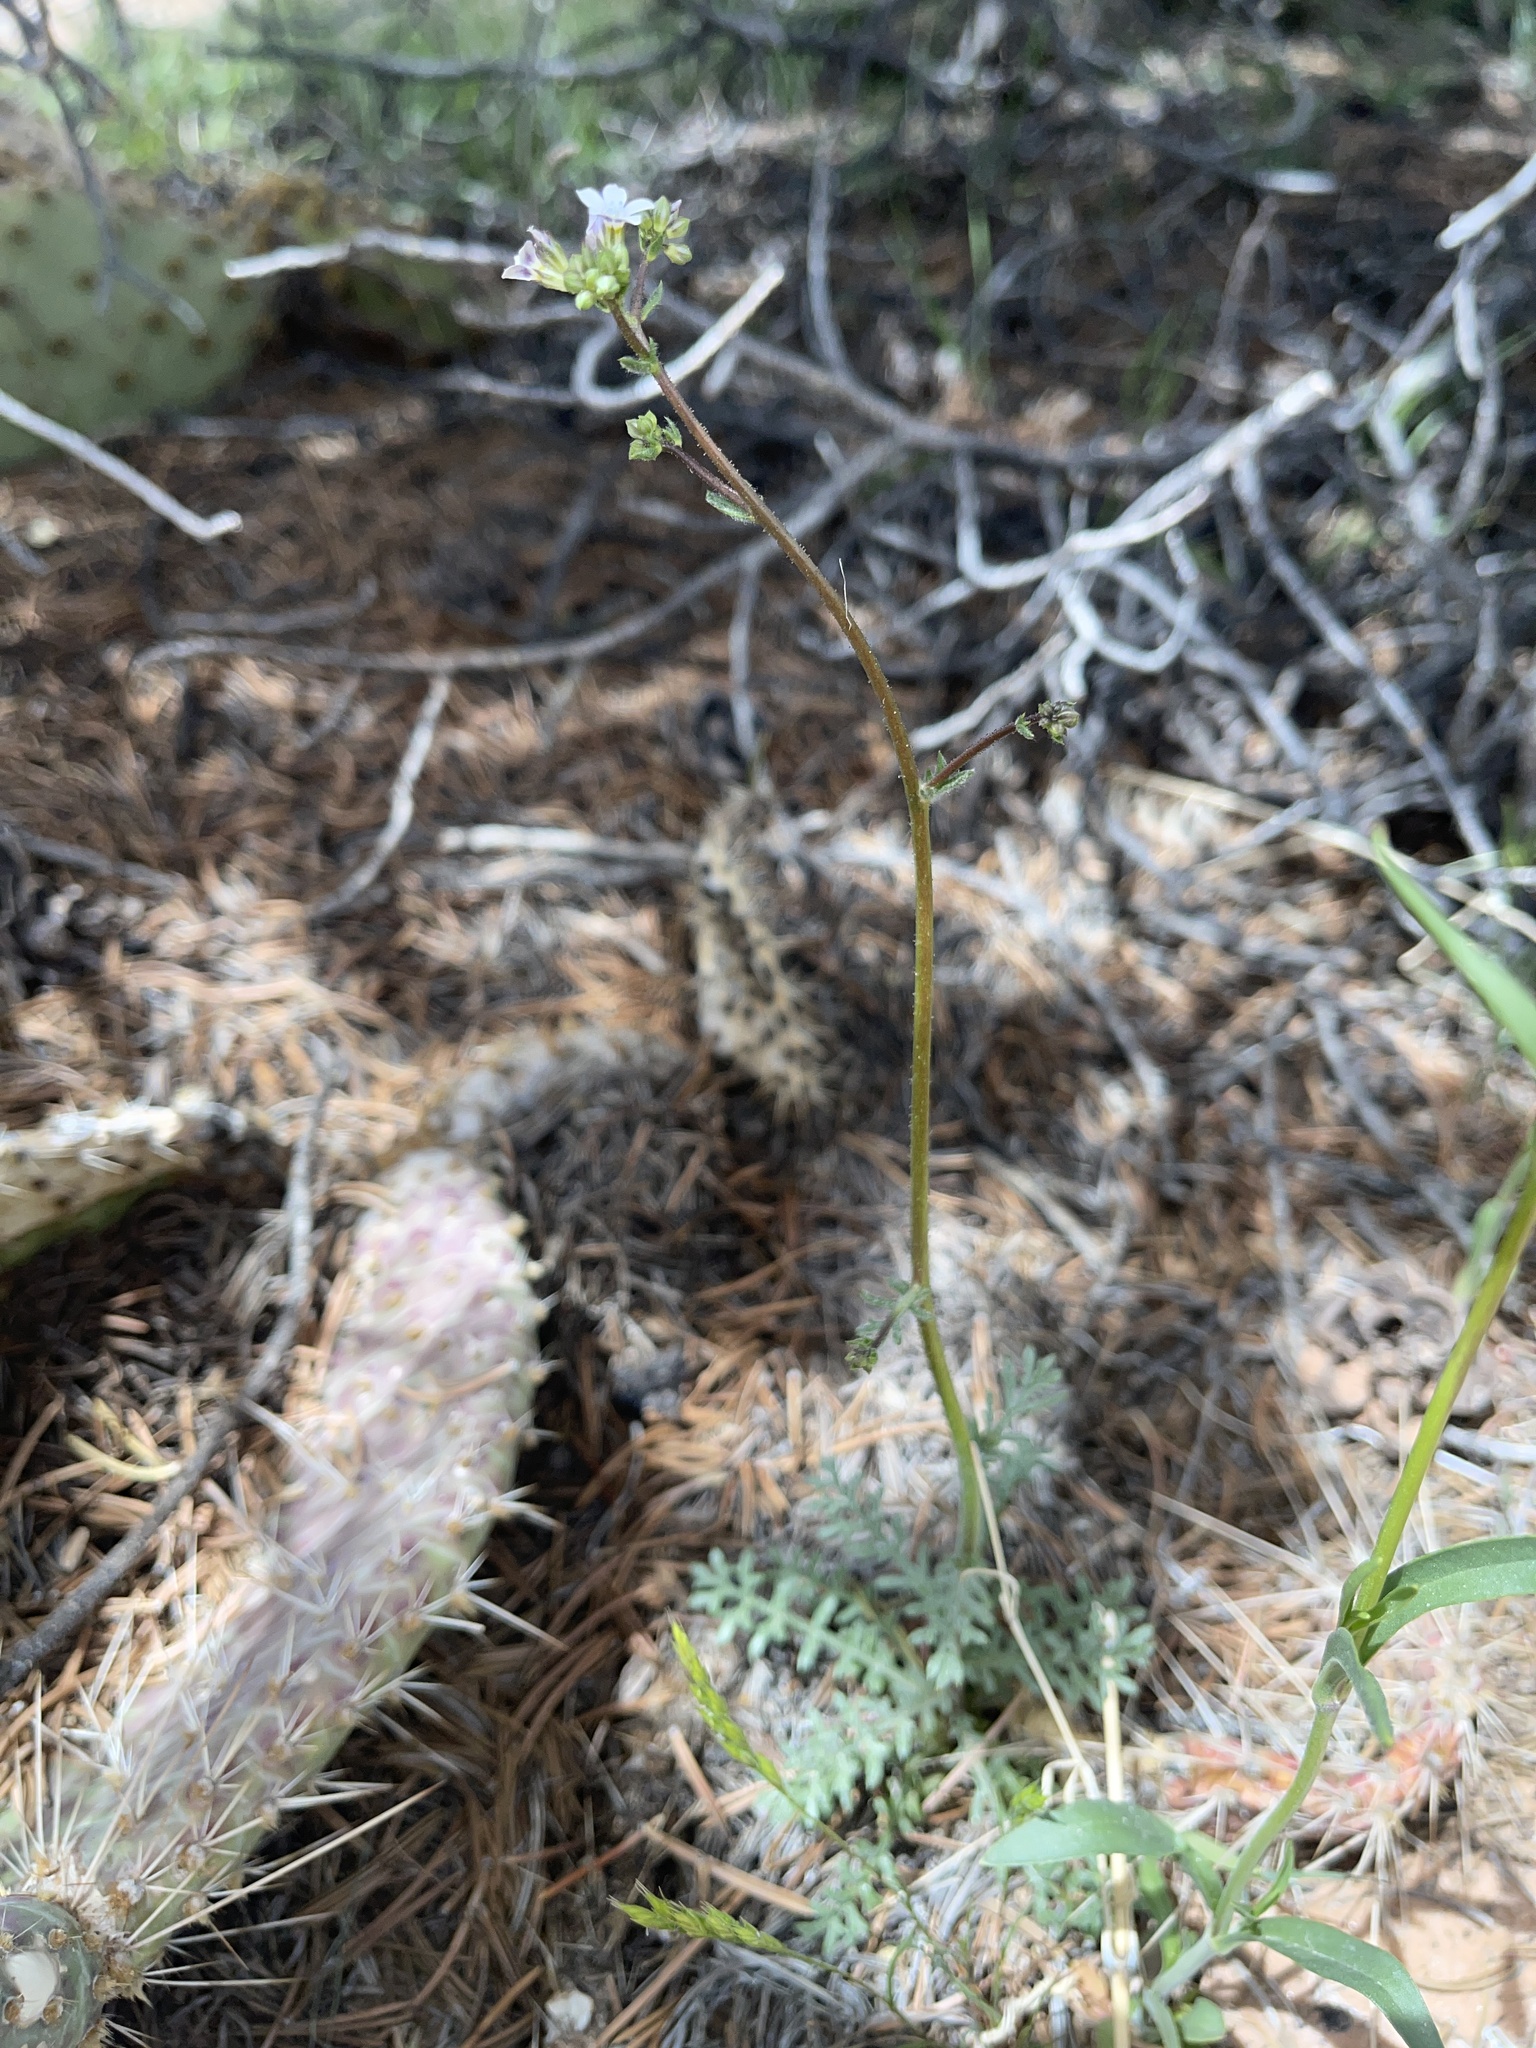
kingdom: Plantae
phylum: Tracheophyta
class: Magnoliopsida
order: Ericales
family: Polemoniaceae
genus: Gilia
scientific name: Gilia clokeyi
